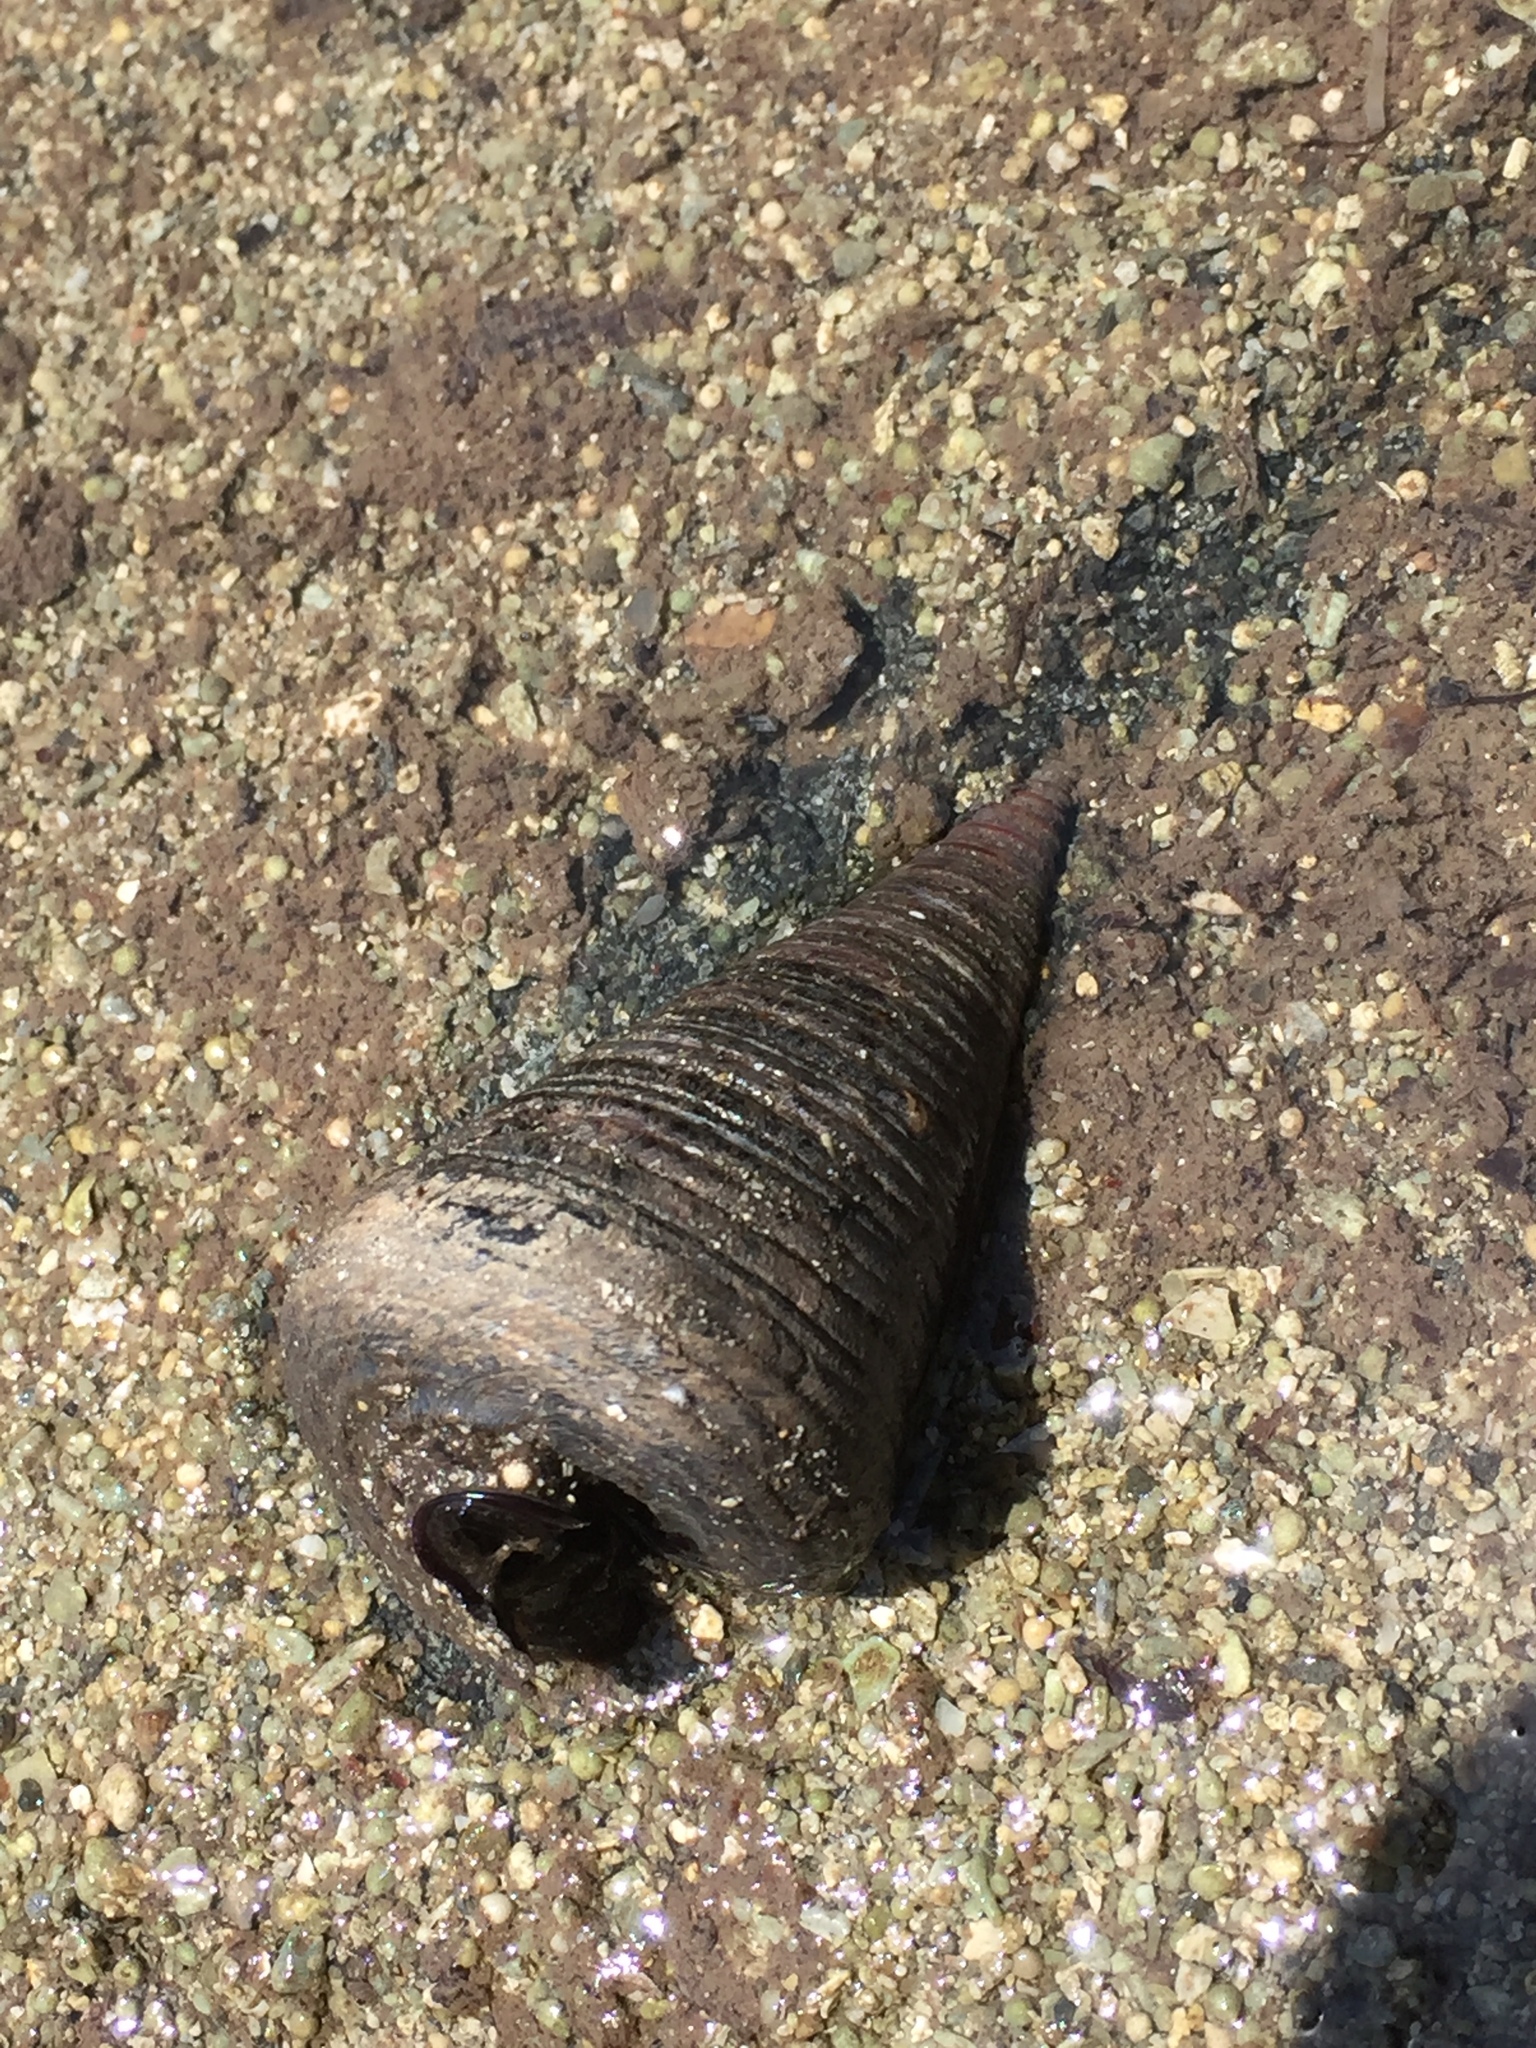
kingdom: Animalia
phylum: Mollusca
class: Gastropoda
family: Potamididae
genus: Telescopium
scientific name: Telescopium telescopium
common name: Telescope creeper
